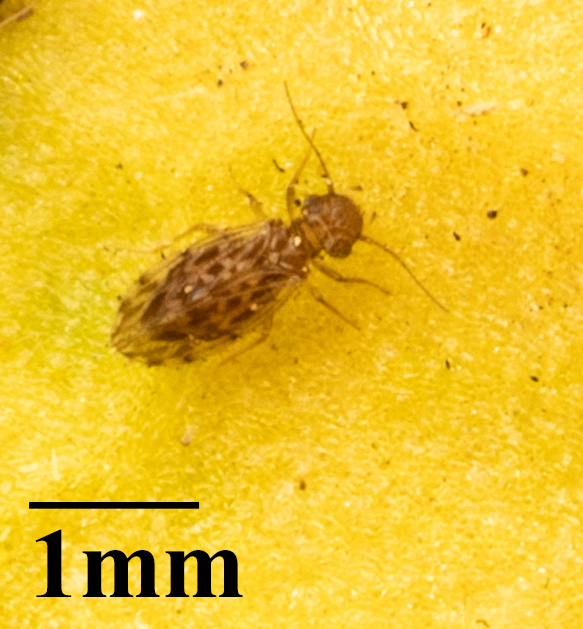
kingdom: Animalia
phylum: Arthropoda
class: Insecta
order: Psocodea
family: Ectopsocidae
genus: Ectopsocus
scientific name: Ectopsocus strauchi
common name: Medium-sized bark louse
